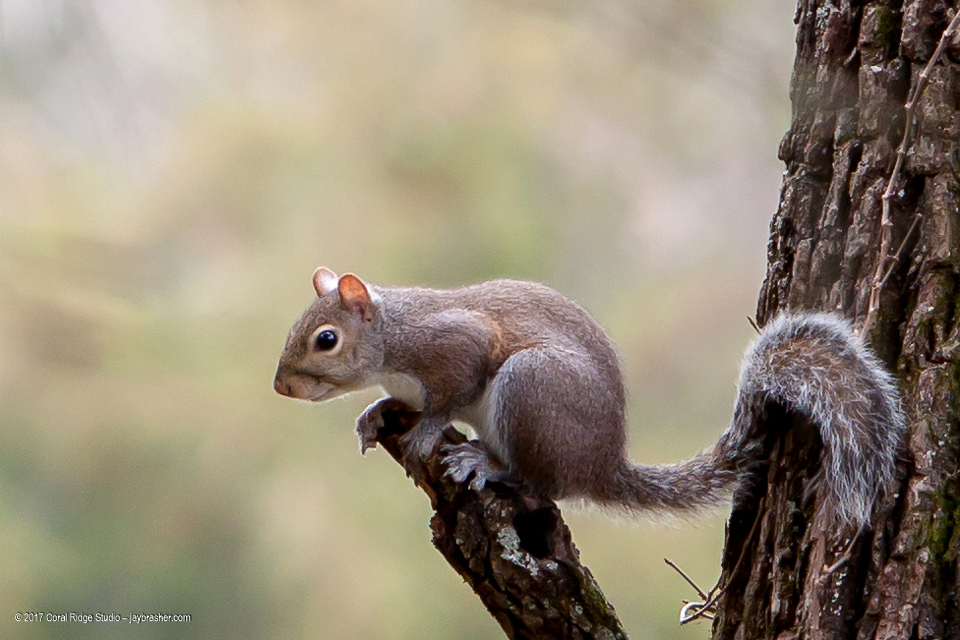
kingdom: Animalia
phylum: Chordata
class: Mammalia
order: Rodentia
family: Sciuridae
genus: Sciurus
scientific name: Sciurus carolinensis
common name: Eastern gray squirrel
